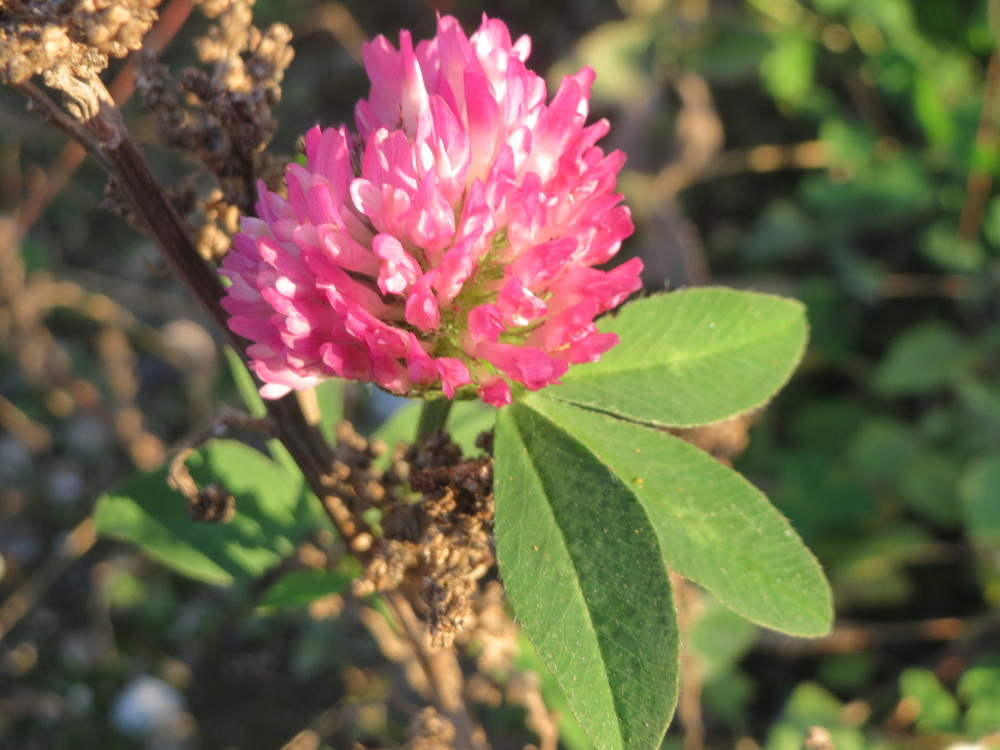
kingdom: Plantae
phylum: Tracheophyta
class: Magnoliopsida
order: Fabales
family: Fabaceae
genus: Trifolium
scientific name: Trifolium pratense
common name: Red clover
